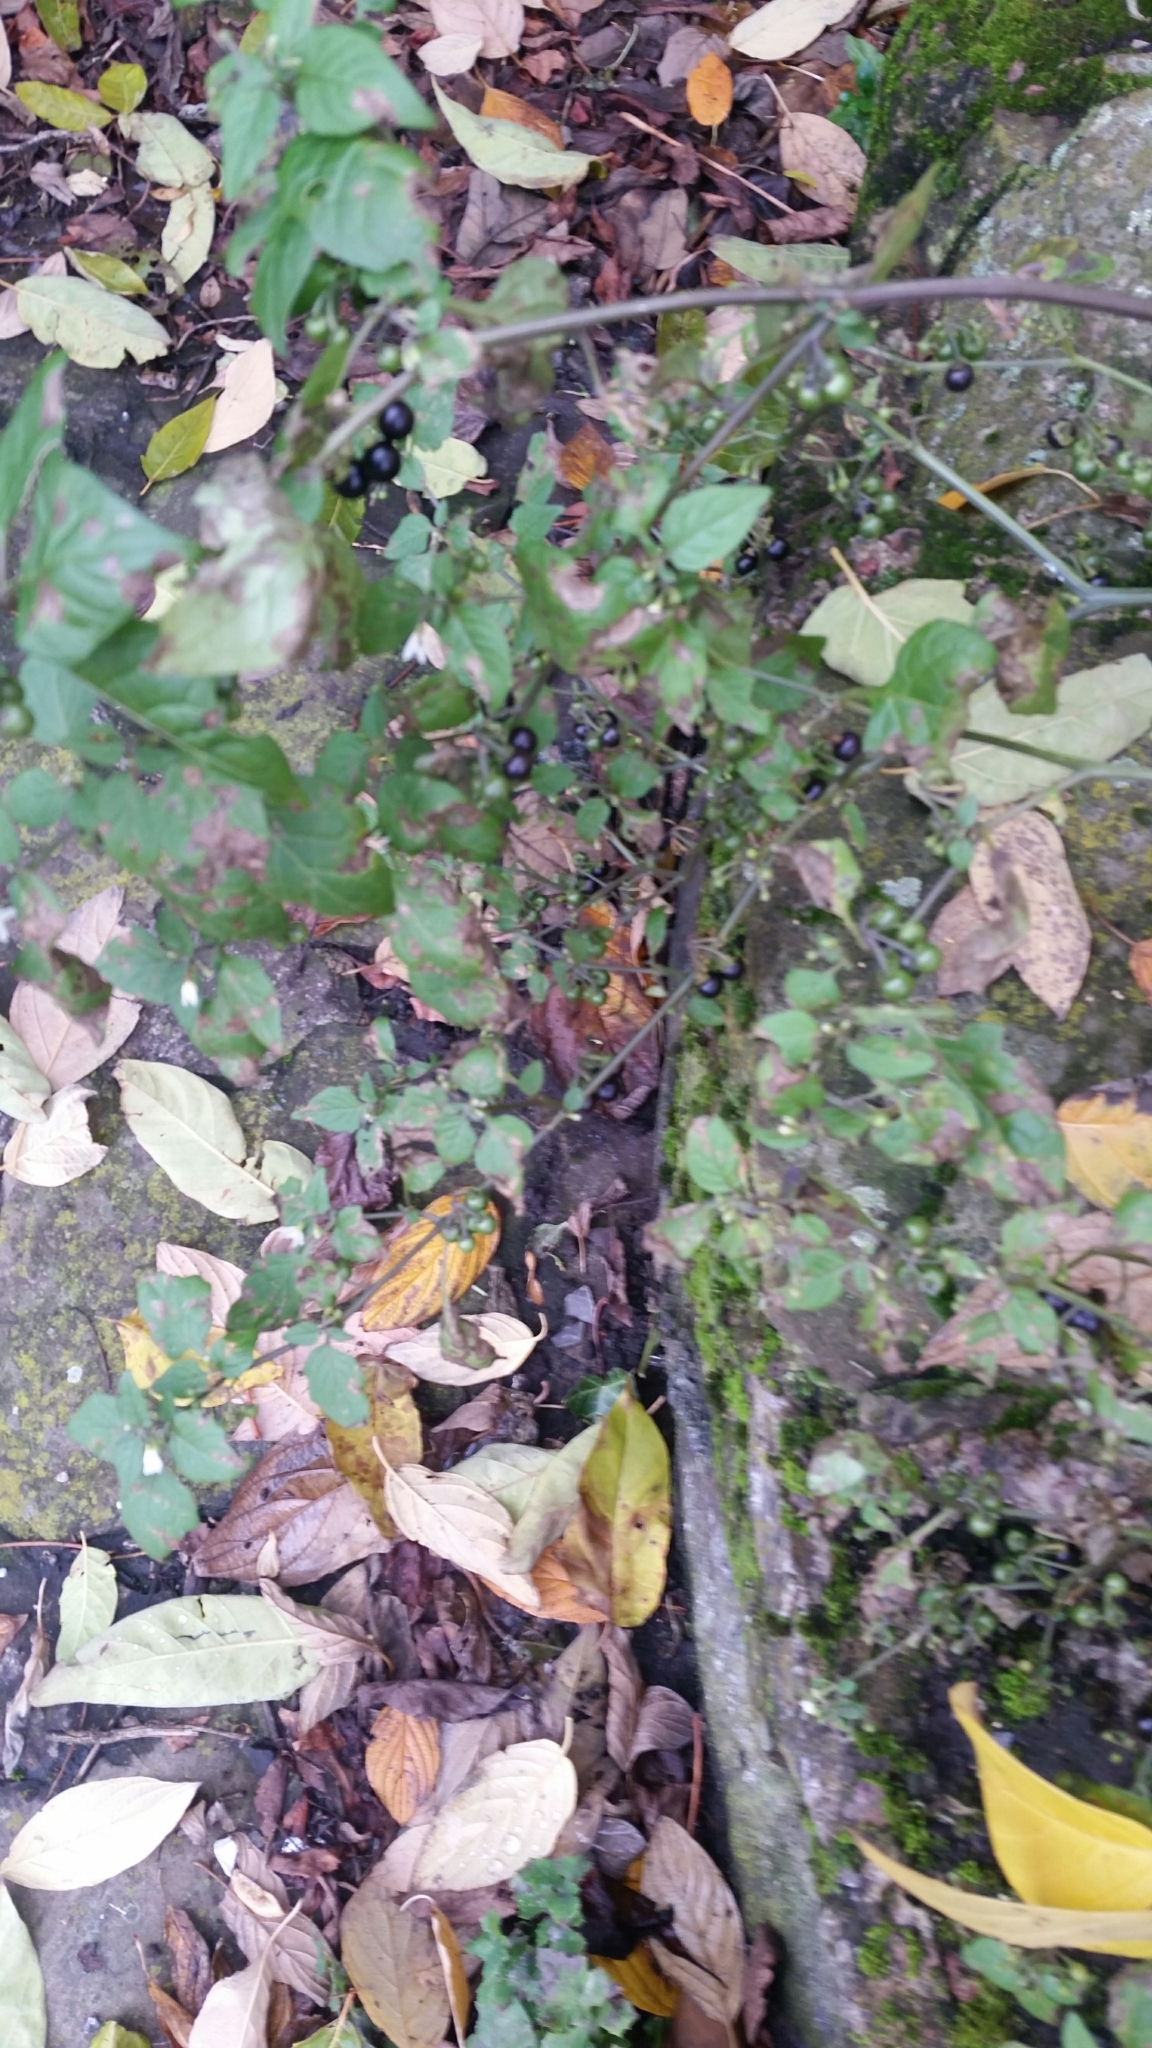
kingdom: Plantae
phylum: Tracheophyta
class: Magnoliopsida
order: Solanales
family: Solanaceae
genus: Solanum
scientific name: Solanum nigrum
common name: Black nightshade
